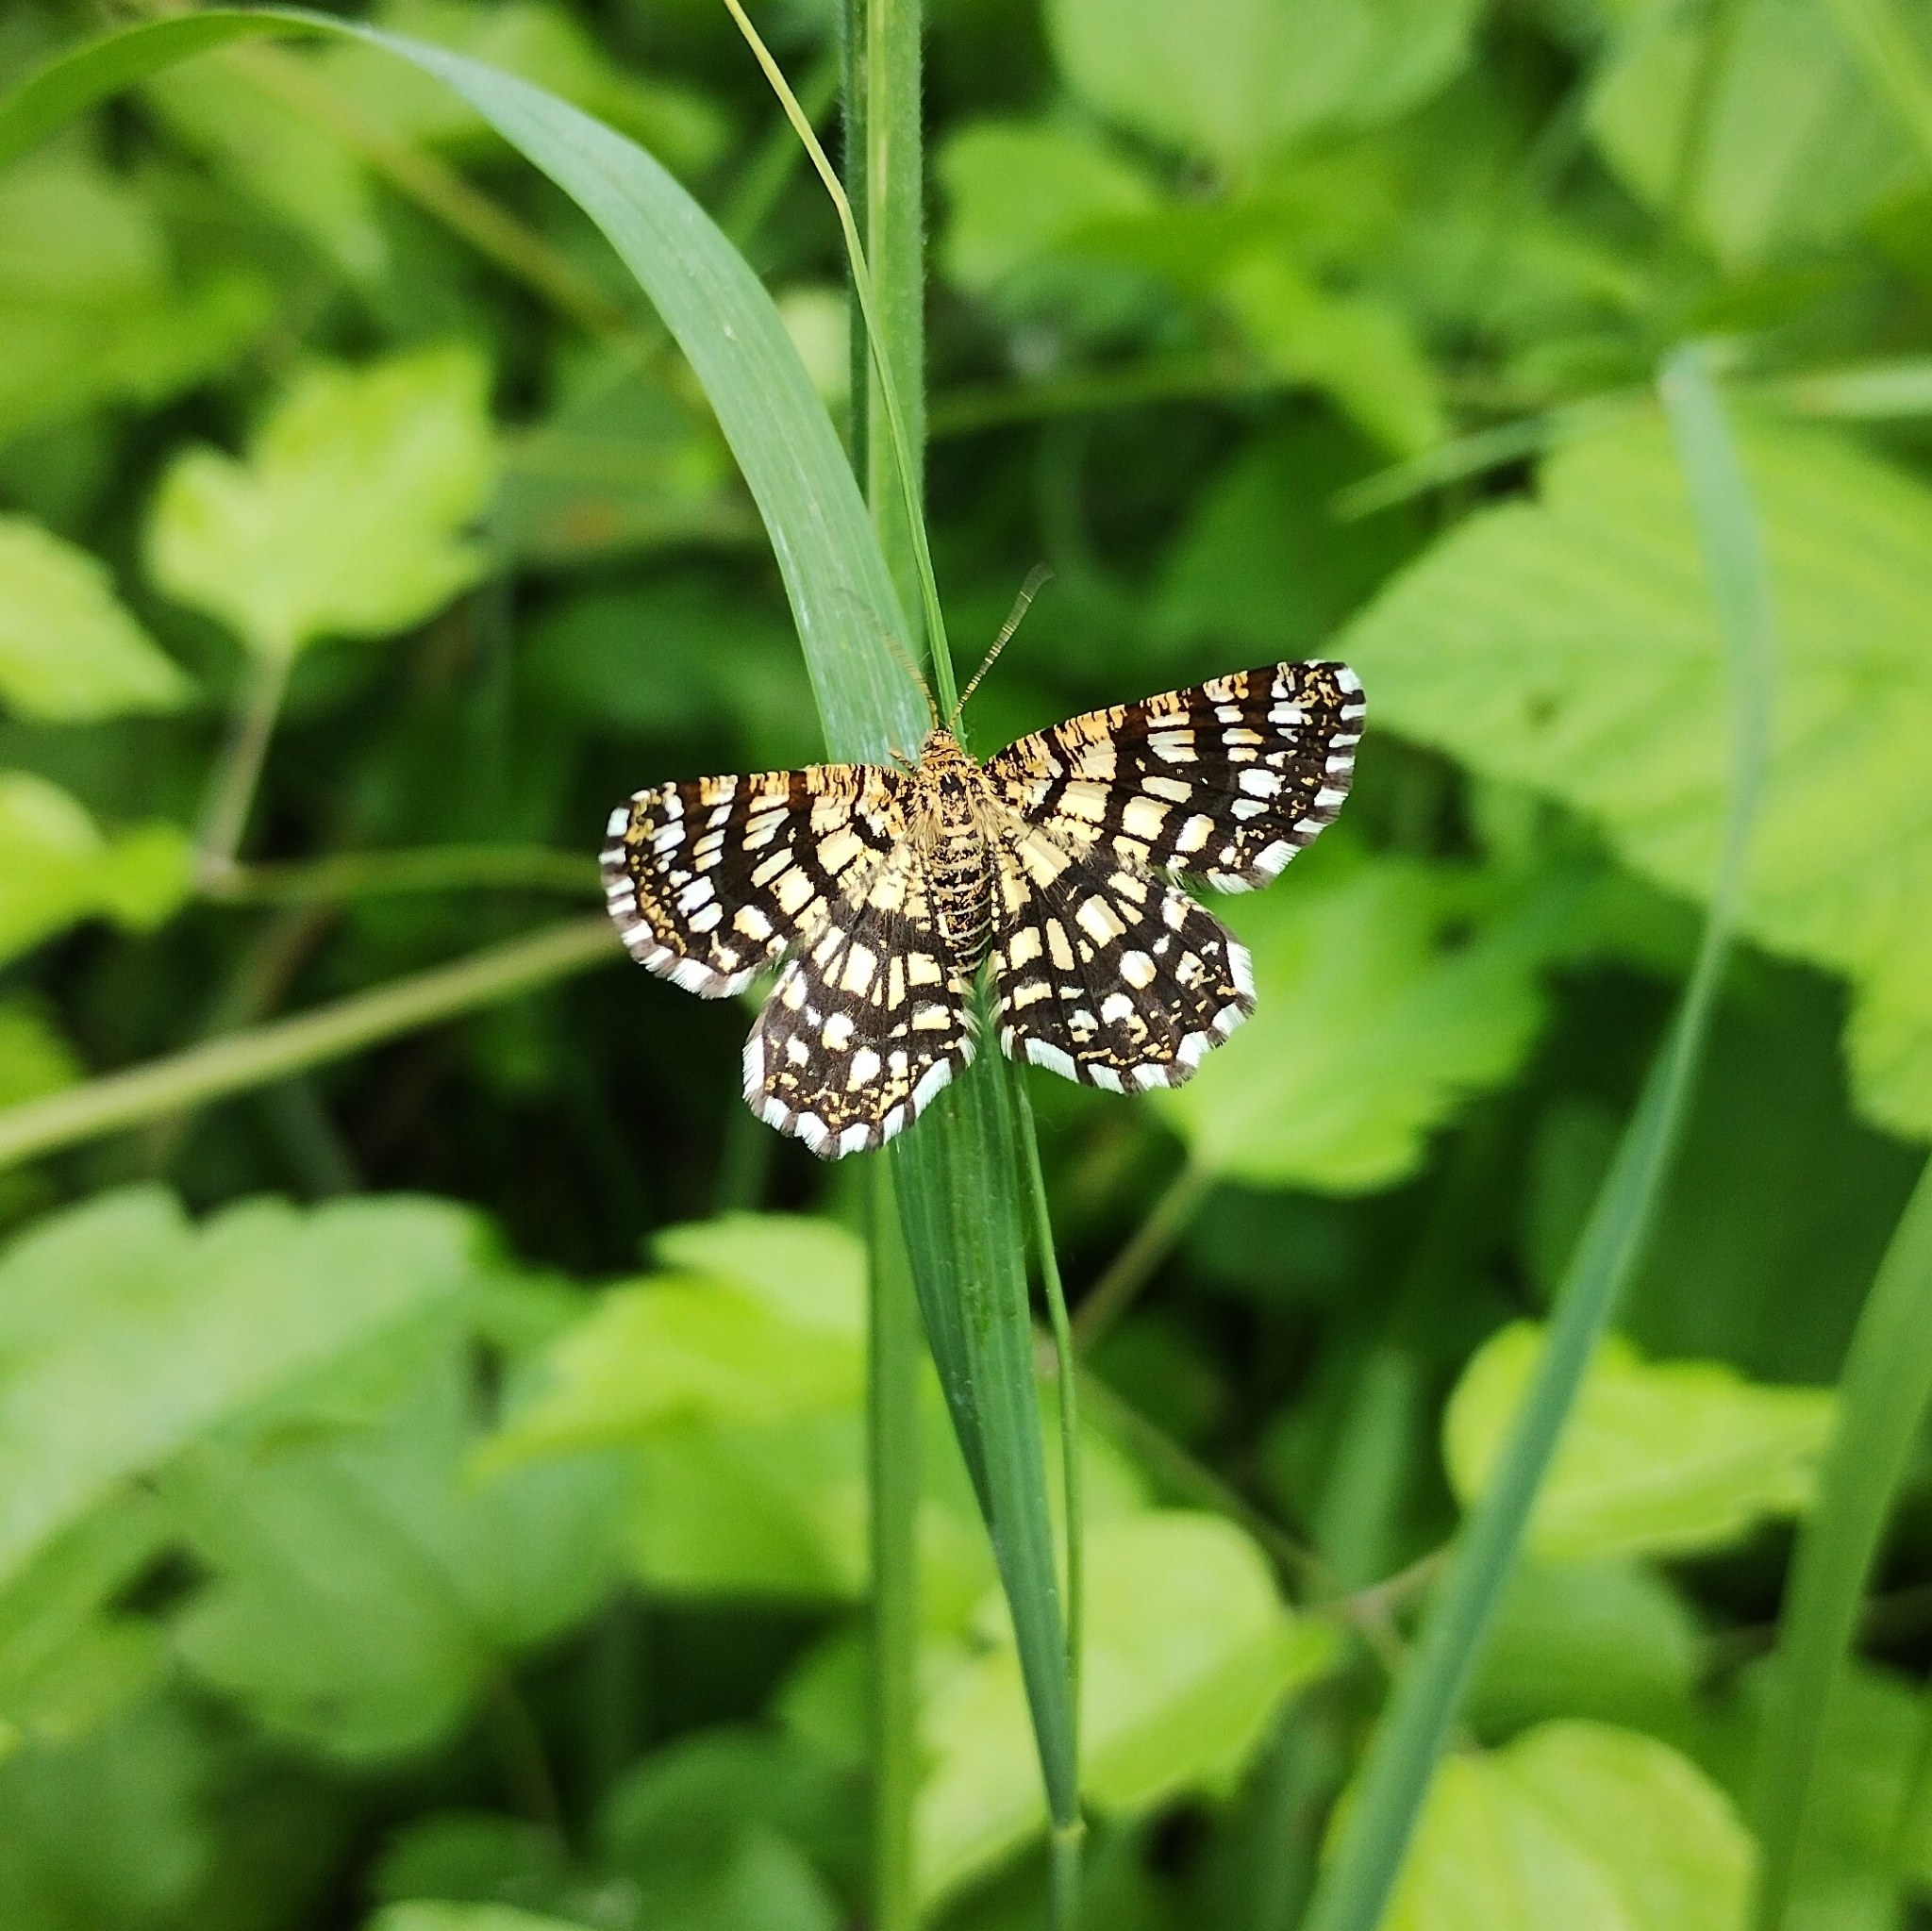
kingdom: Animalia
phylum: Arthropoda
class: Insecta
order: Lepidoptera
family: Geometridae
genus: Chiasmia
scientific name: Chiasmia clathrata
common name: Latticed heath
